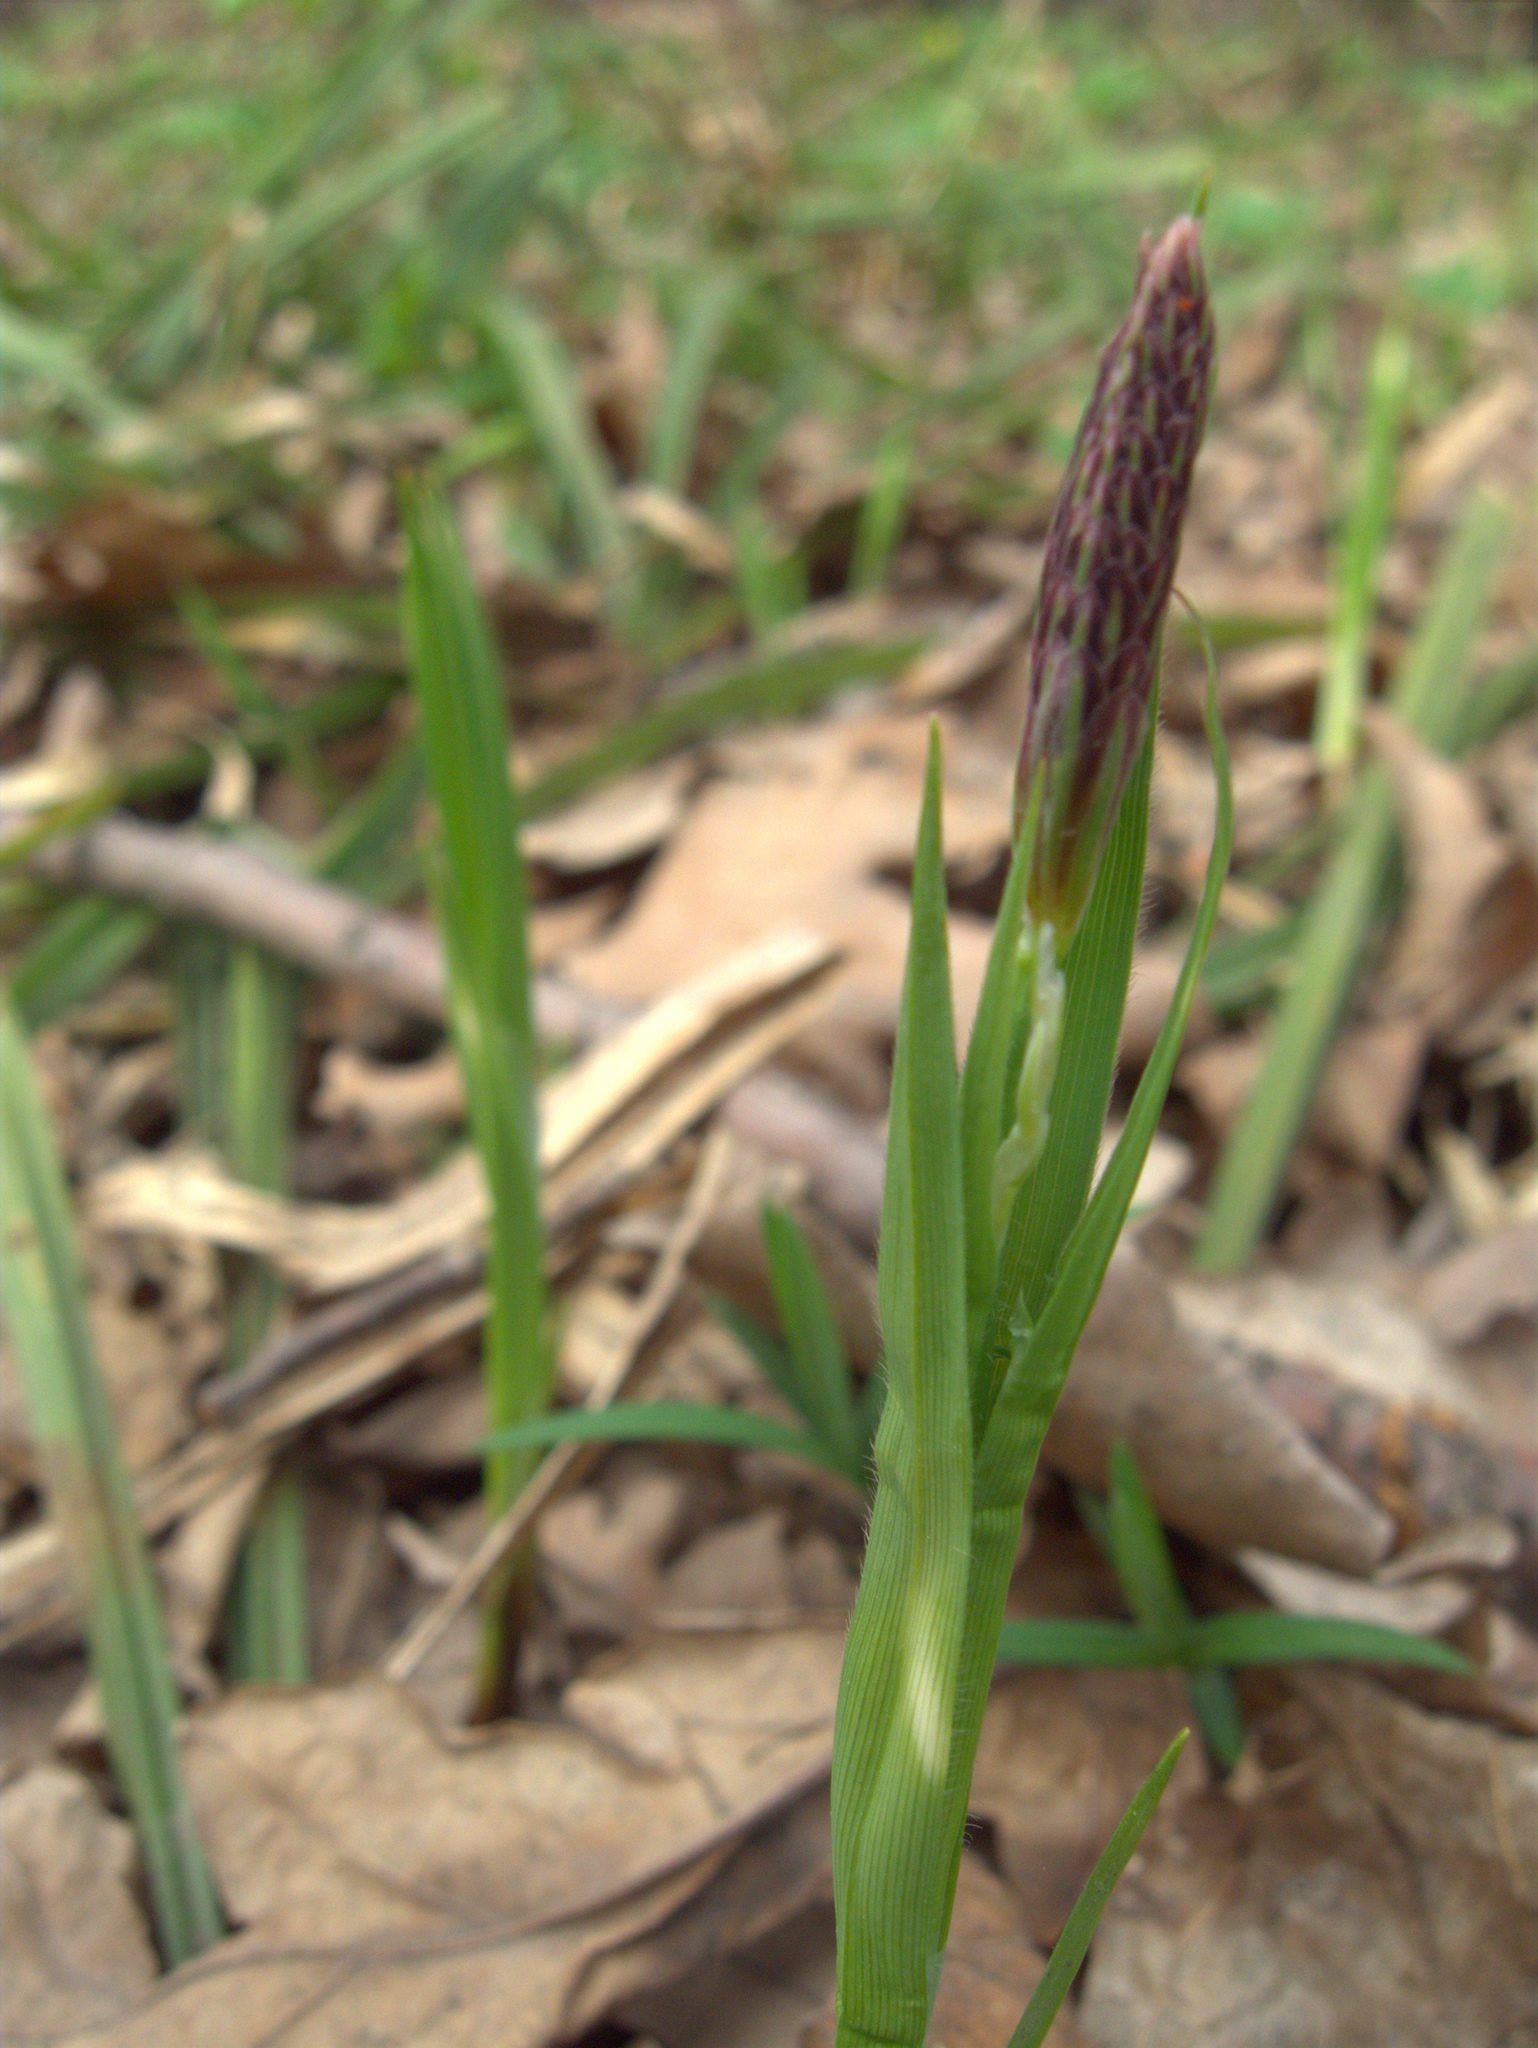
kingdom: Plantae
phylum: Tracheophyta
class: Liliopsida
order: Poales
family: Cyperaceae
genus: Carex
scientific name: Carex pilosa
